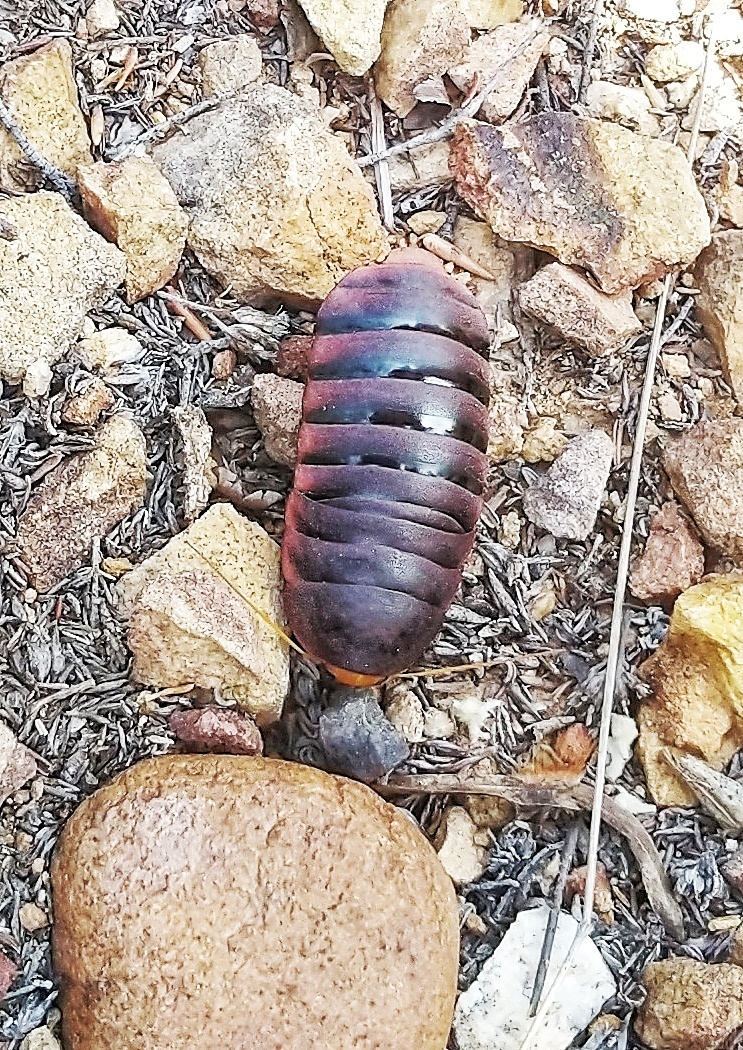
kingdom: Animalia
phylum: Arthropoda
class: Insecta
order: Blattodea
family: Blaberidae
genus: Aptera
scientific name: Aptera fusca
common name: Cape mountain cockroach
